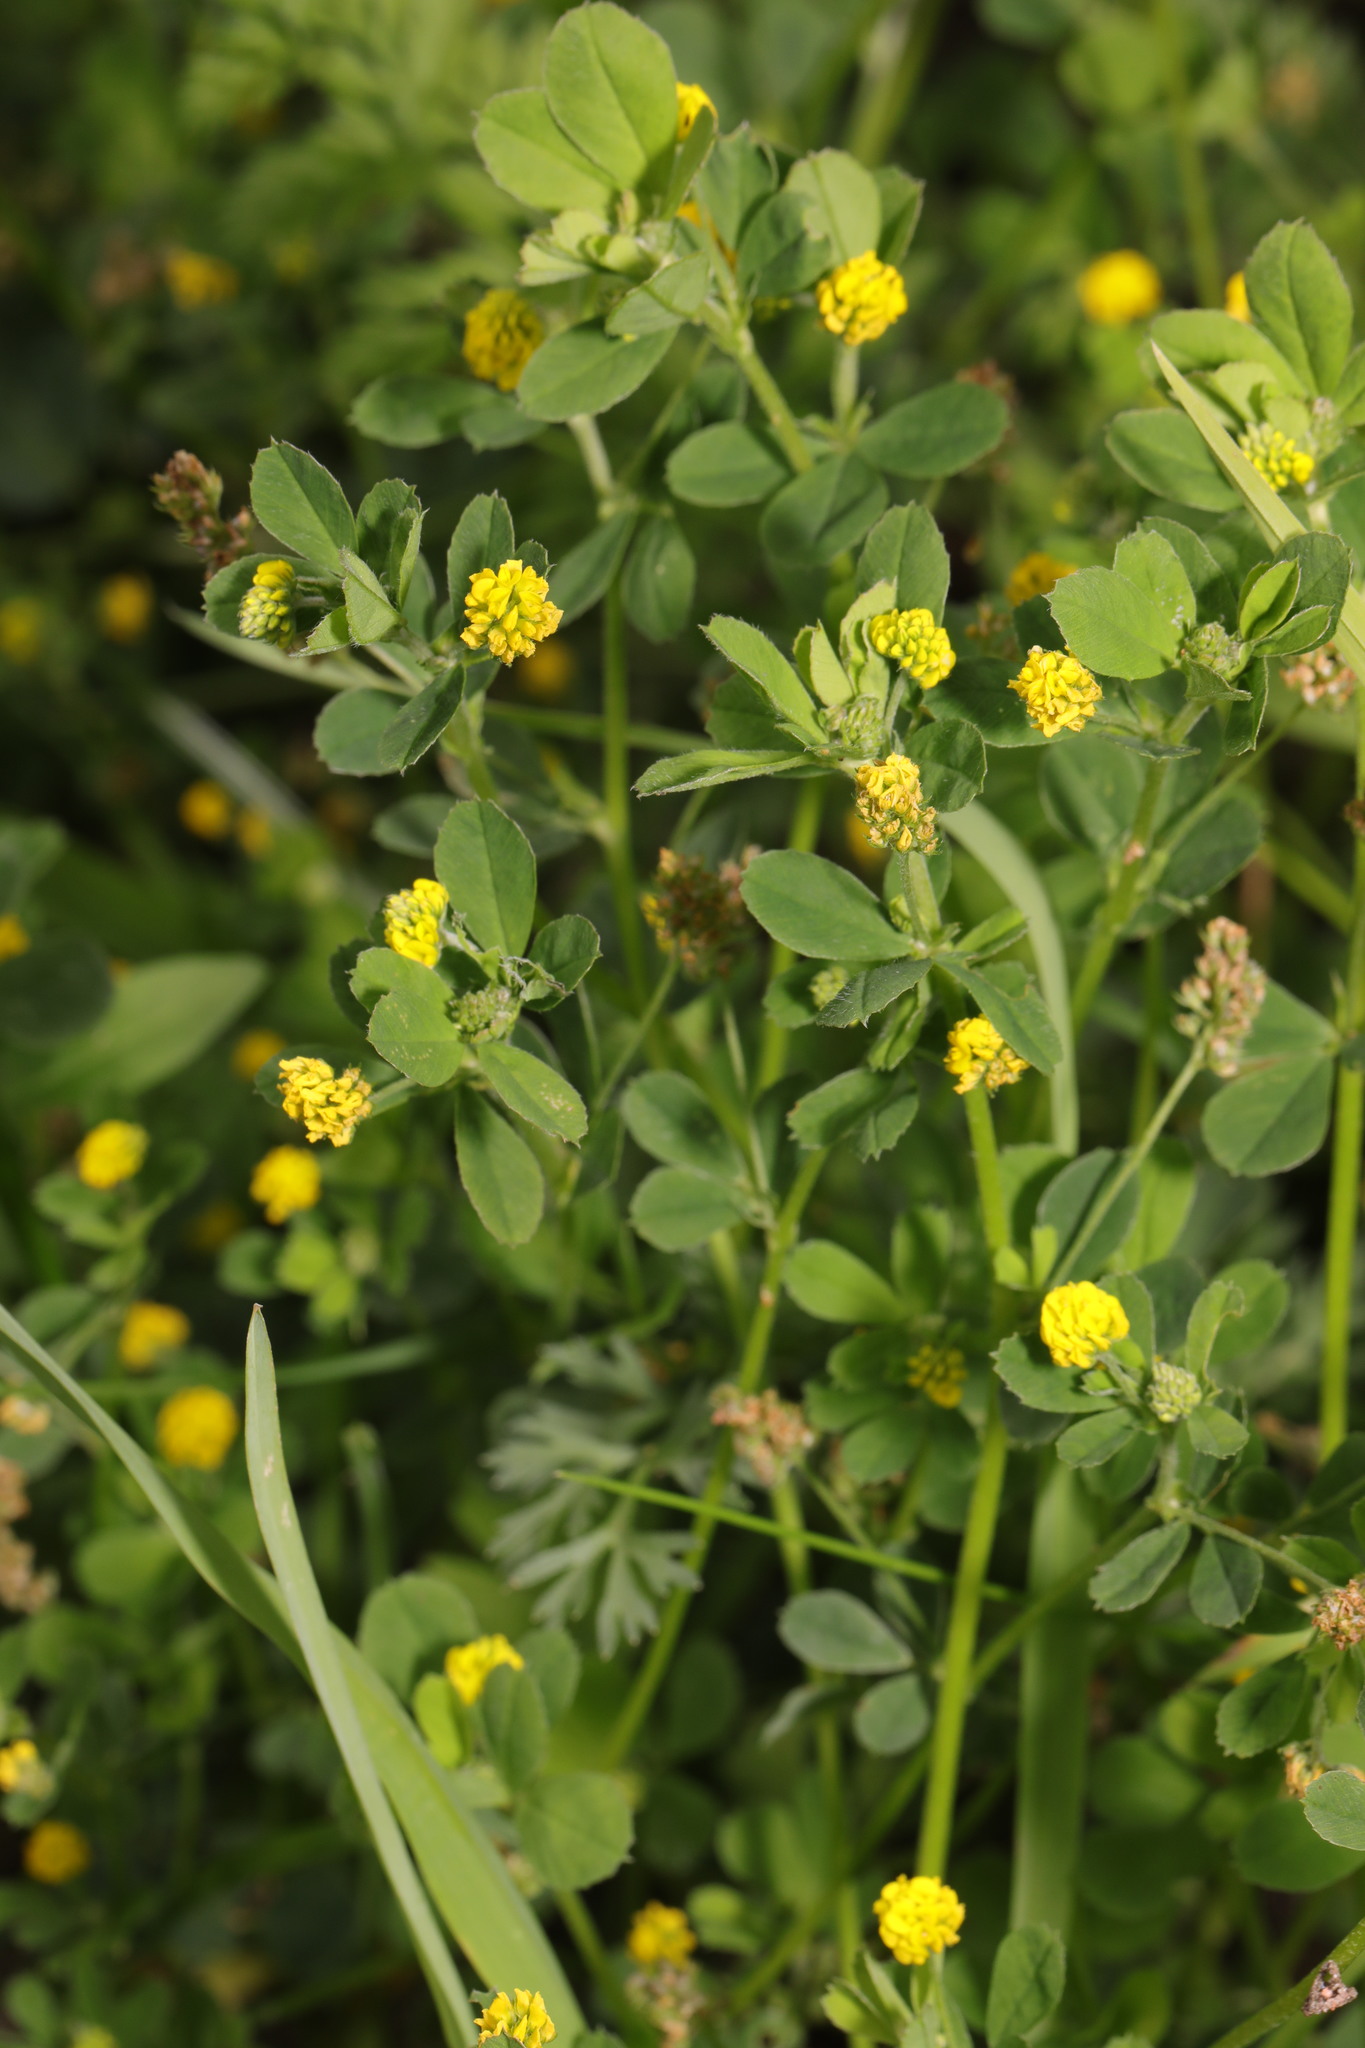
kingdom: Plantae
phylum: Tracheophyta
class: Magnoliopsida
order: Fabales
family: Fabaceae
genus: Medicago
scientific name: Medicago lupulina
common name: Black medick
